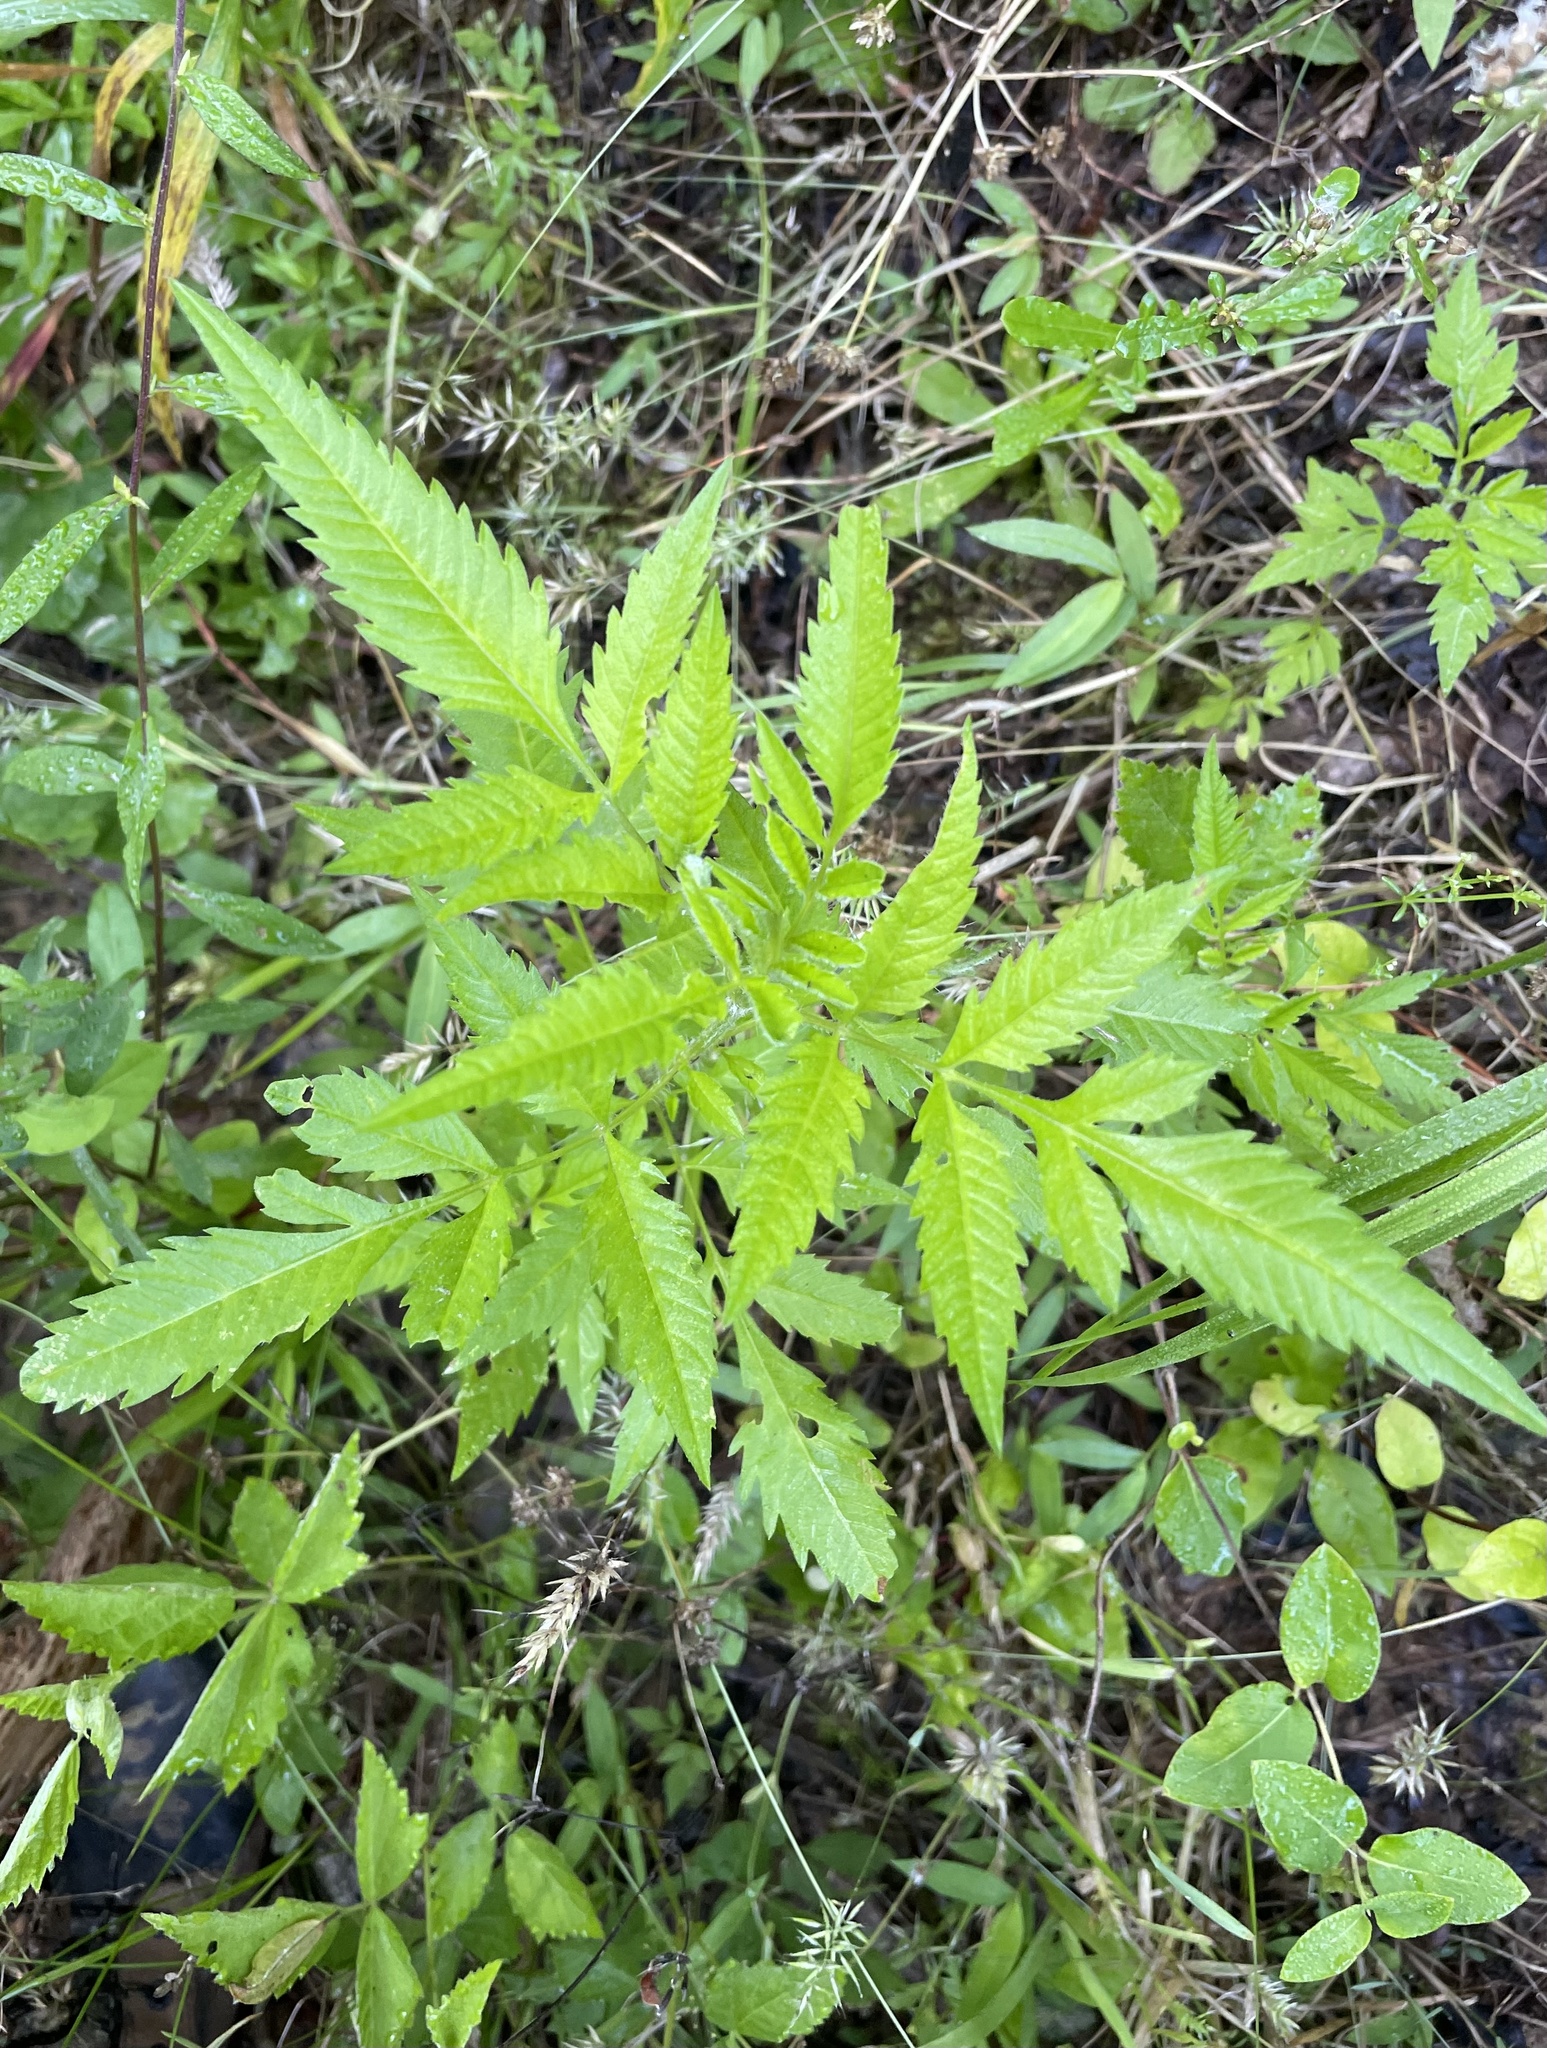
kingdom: Plantae
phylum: Tracheophyta
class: Magnoliopsida
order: Asterales
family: Asteraceae
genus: Bidens
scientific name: Bidens aristosa
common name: Western tickseed
